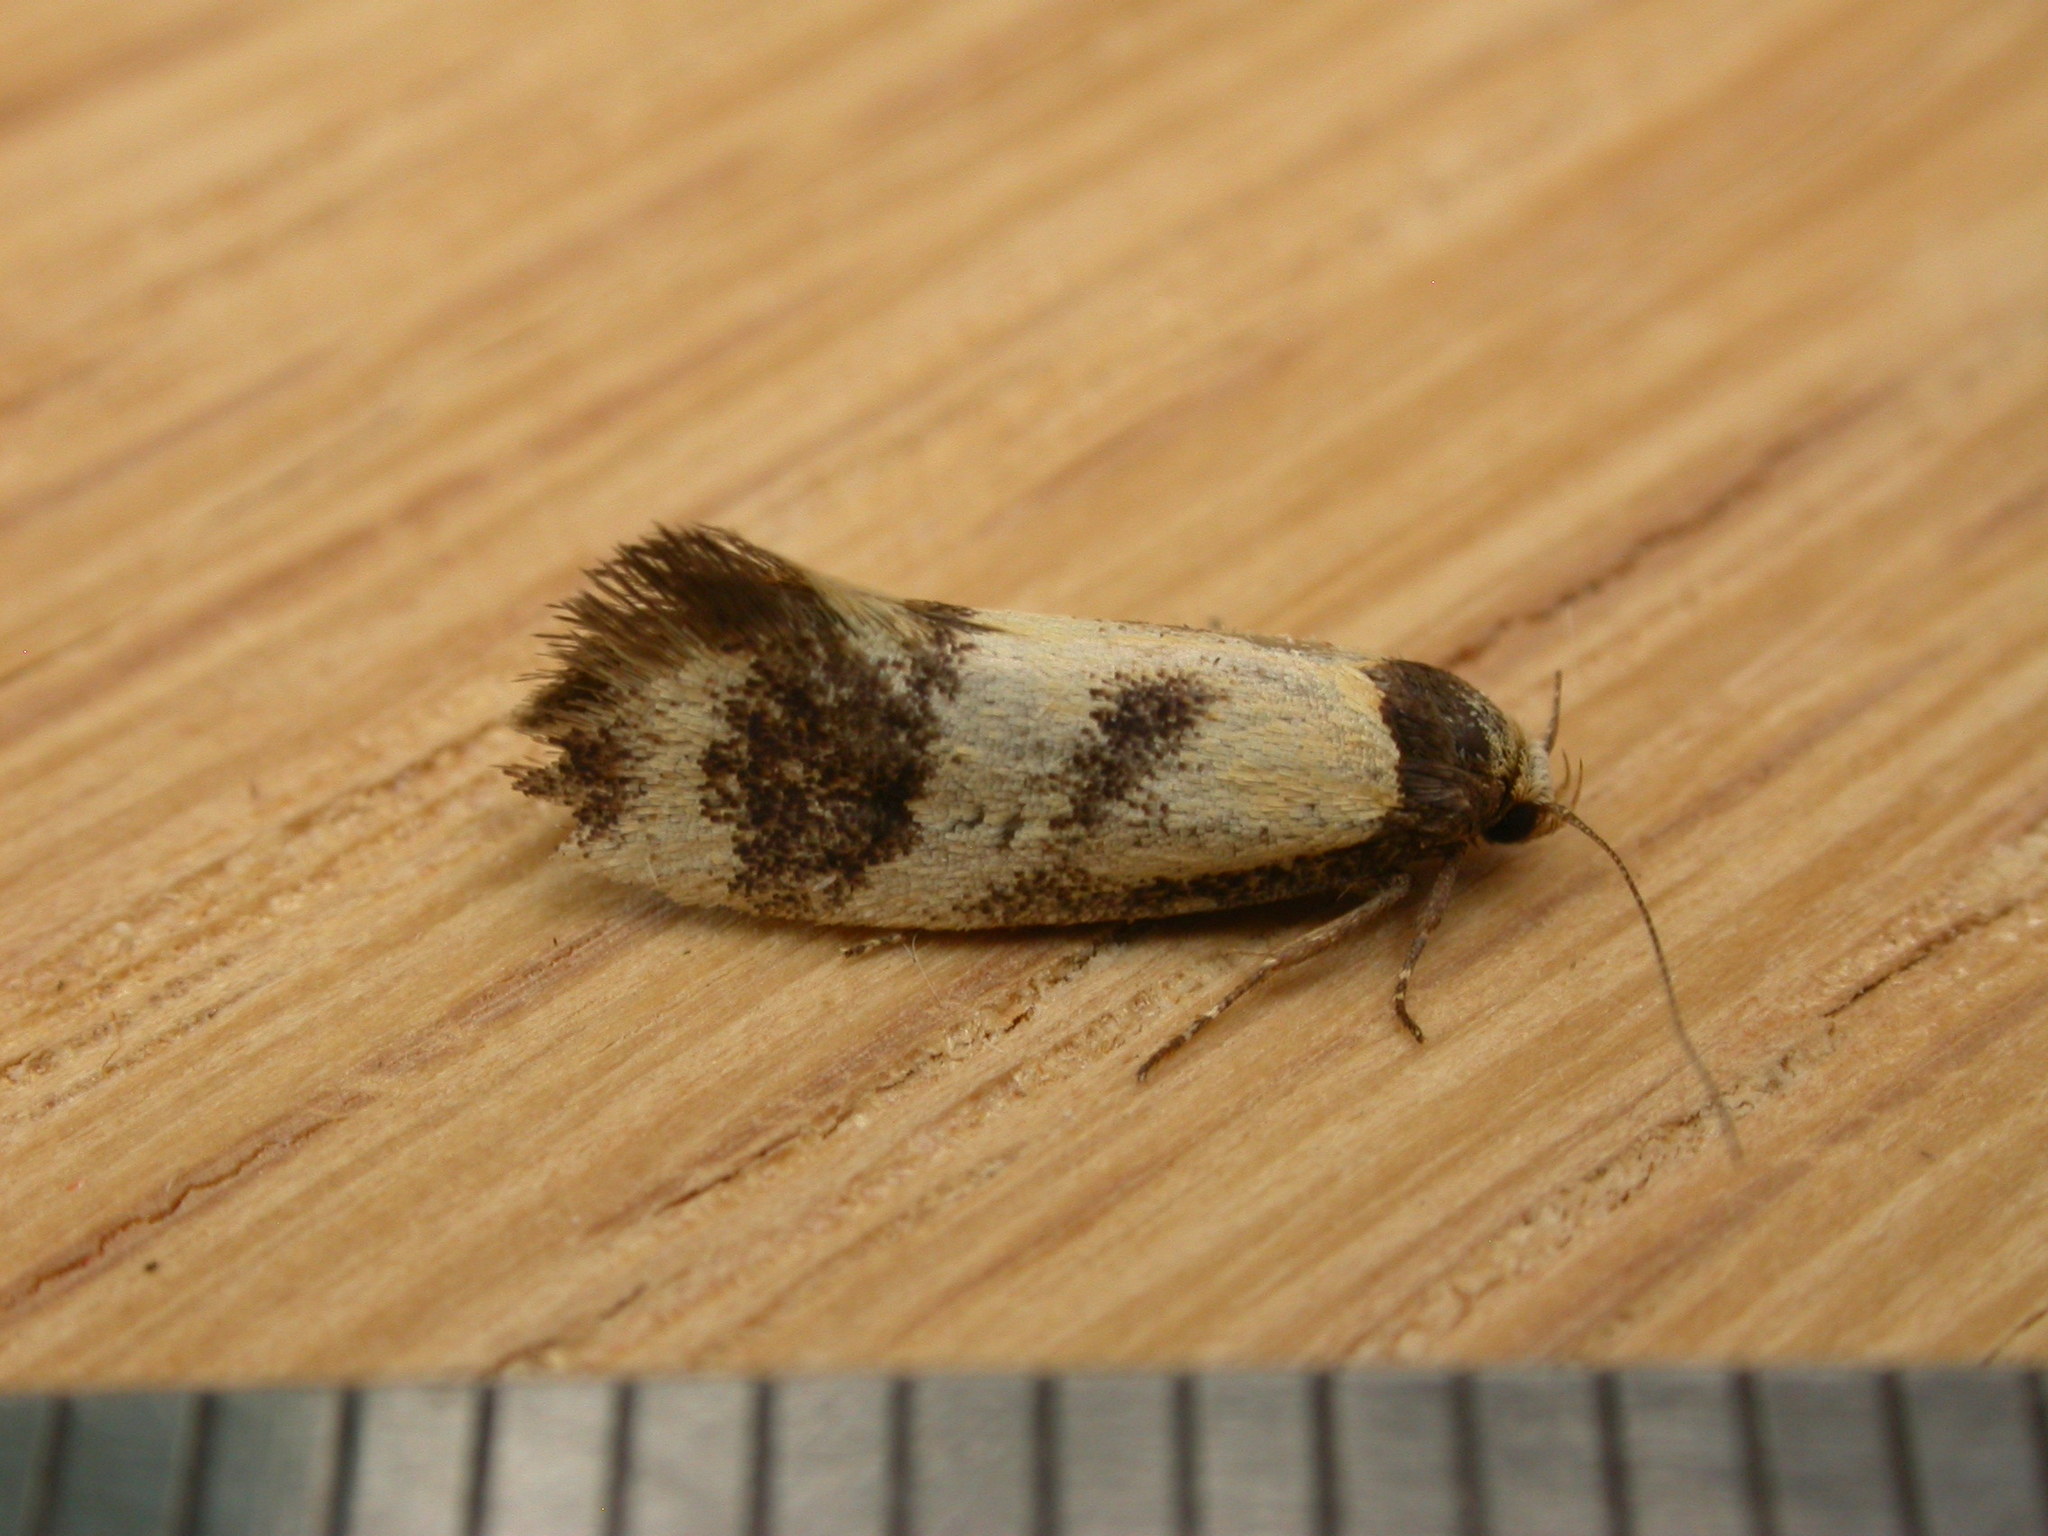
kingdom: Animalia
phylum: Arthropoda
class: Insecta
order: Lepidoptera
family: Oecophoridae
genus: Olbonoma
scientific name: Olbonoma triptycha
